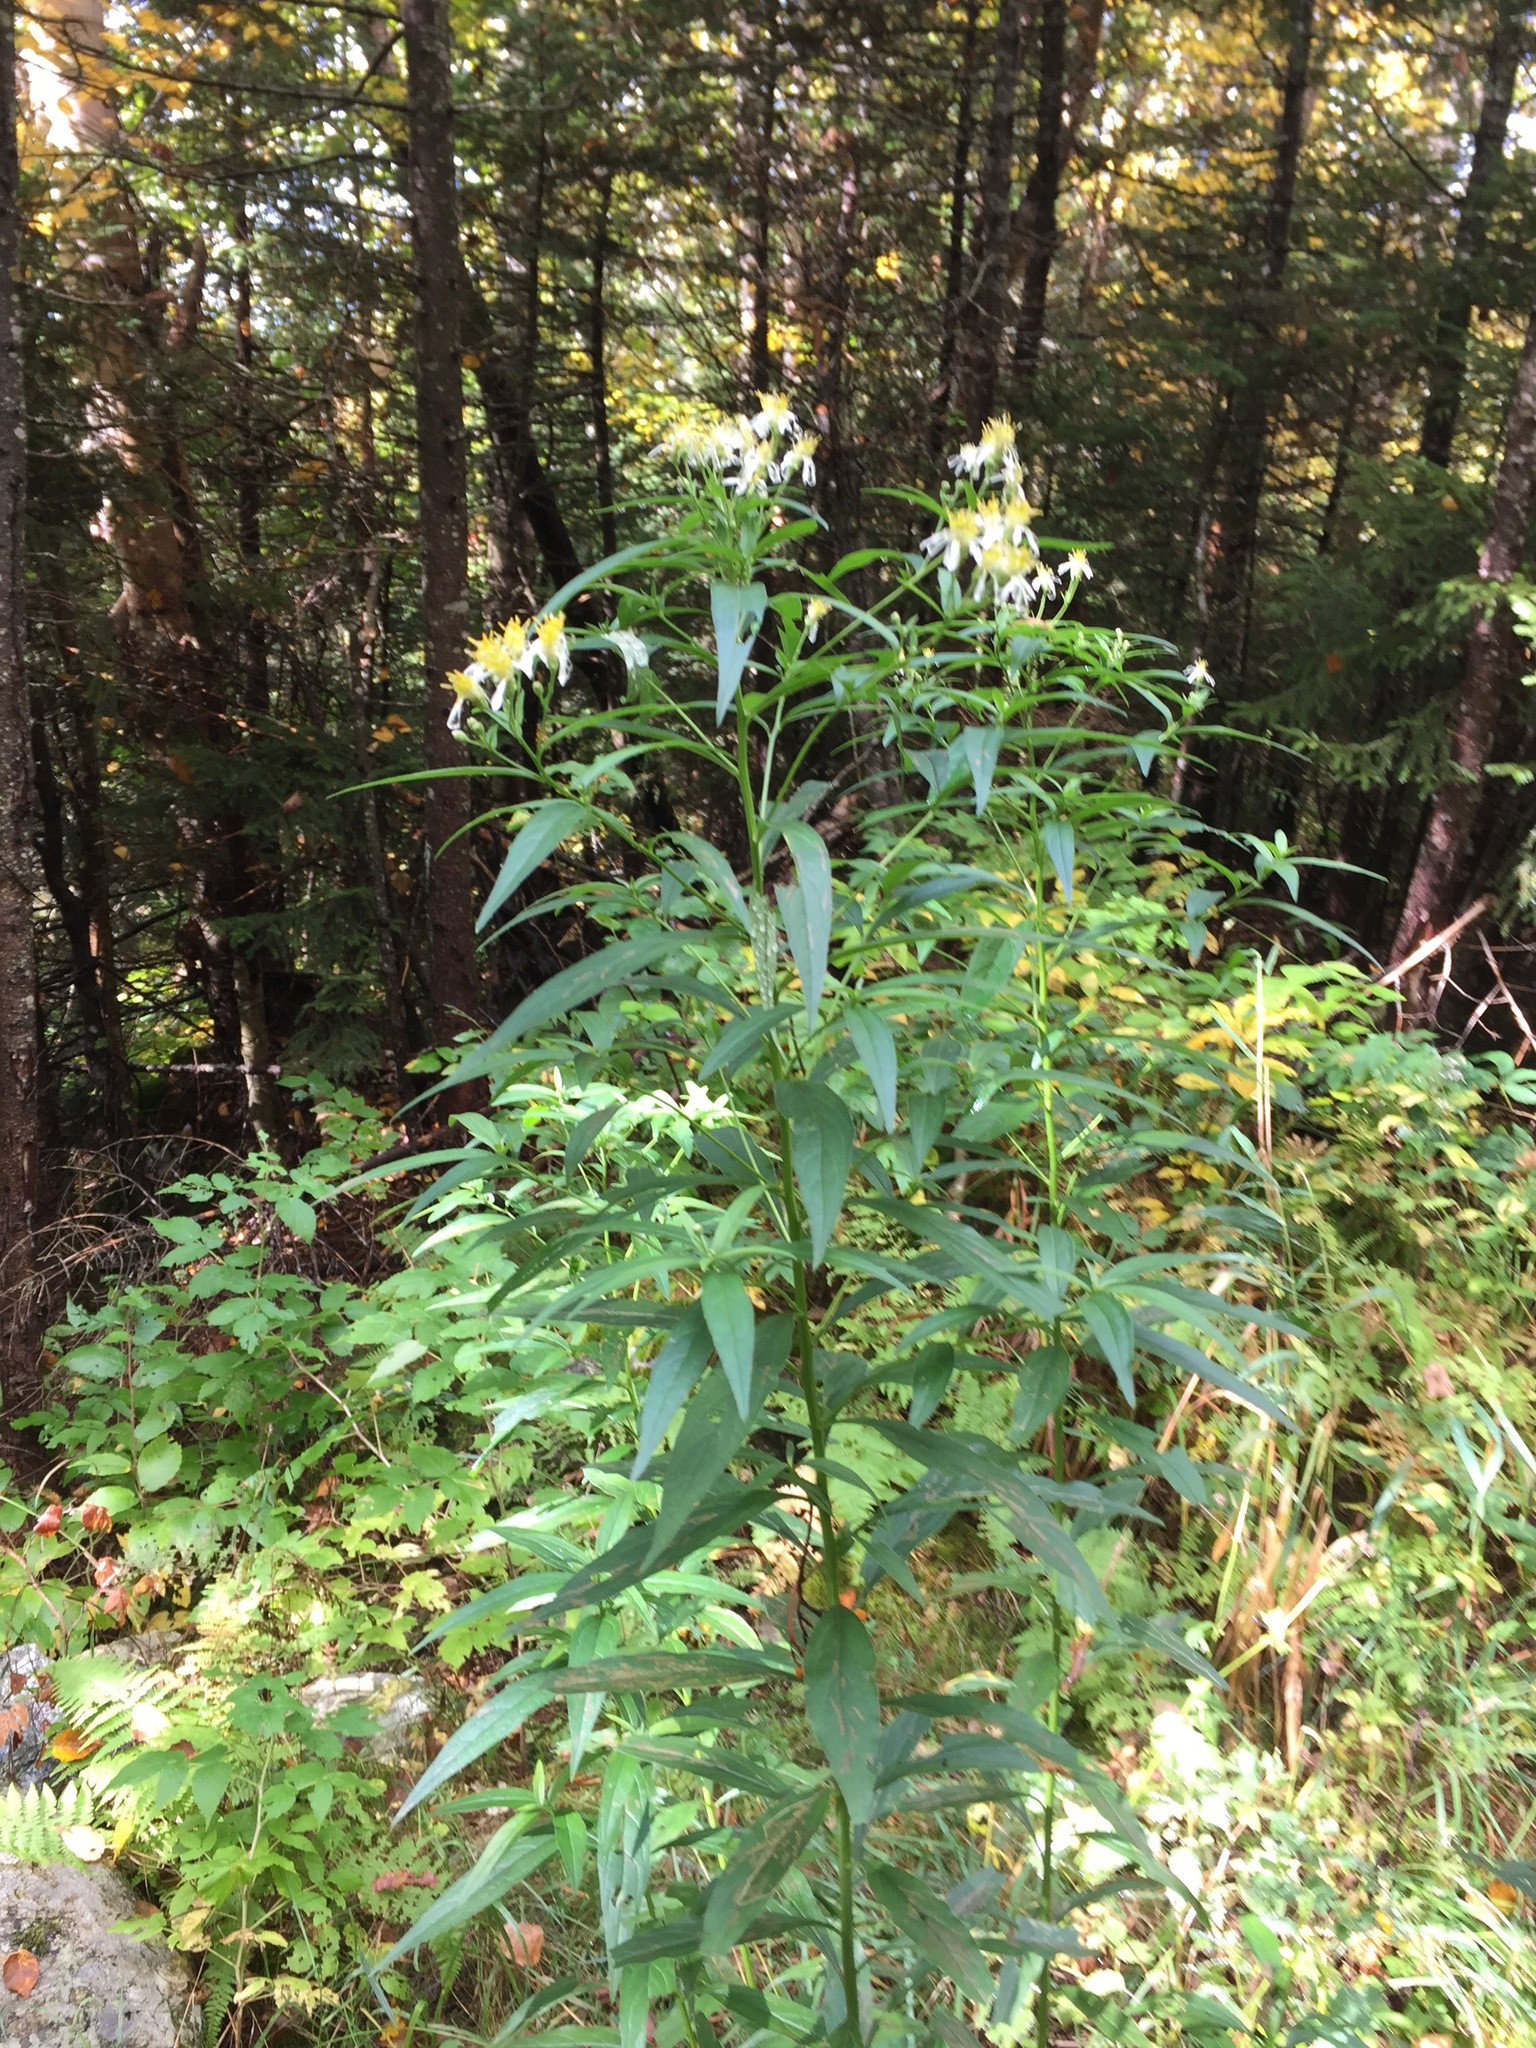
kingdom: Plantae
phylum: Tracheophyta
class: Magnoliopsida
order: Asterales
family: Asteraceae
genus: Doellingeria
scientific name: Doellingeria umbellata
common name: Flat-top white aster
